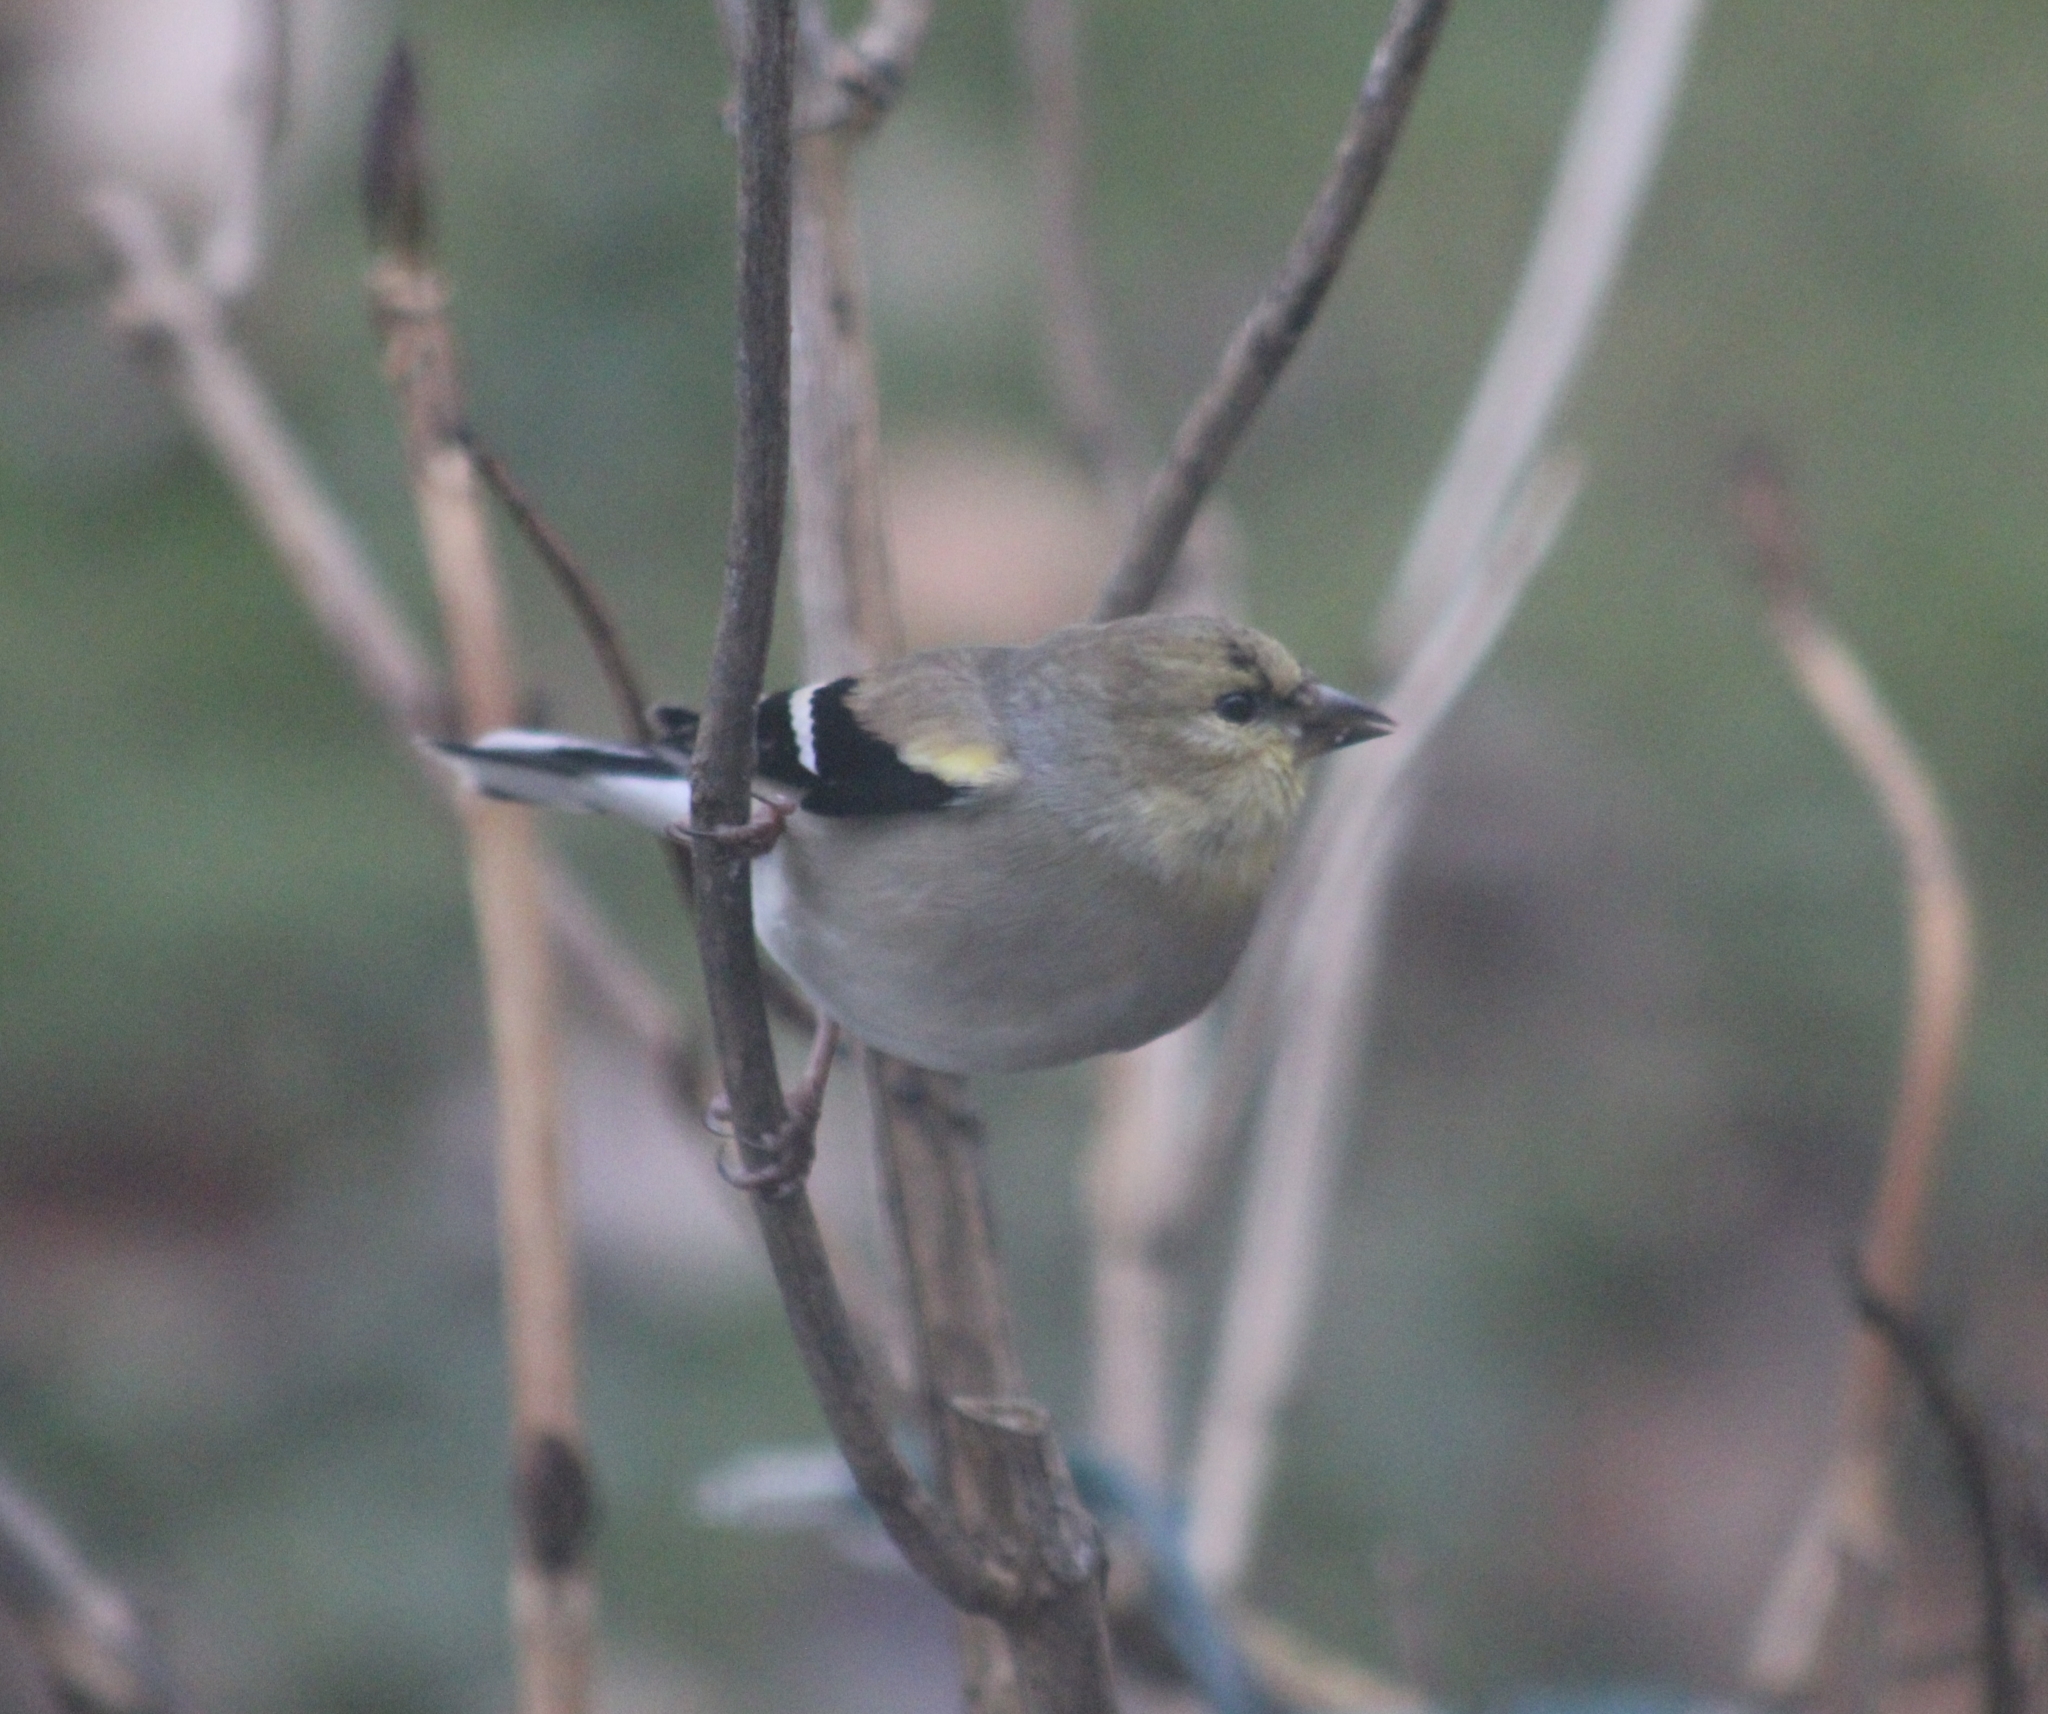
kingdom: Animalia
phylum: Chordata
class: Aves
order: Passeriformes
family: Fringillidae
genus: Spinus
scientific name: Spinus tristis
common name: American goldfinch
